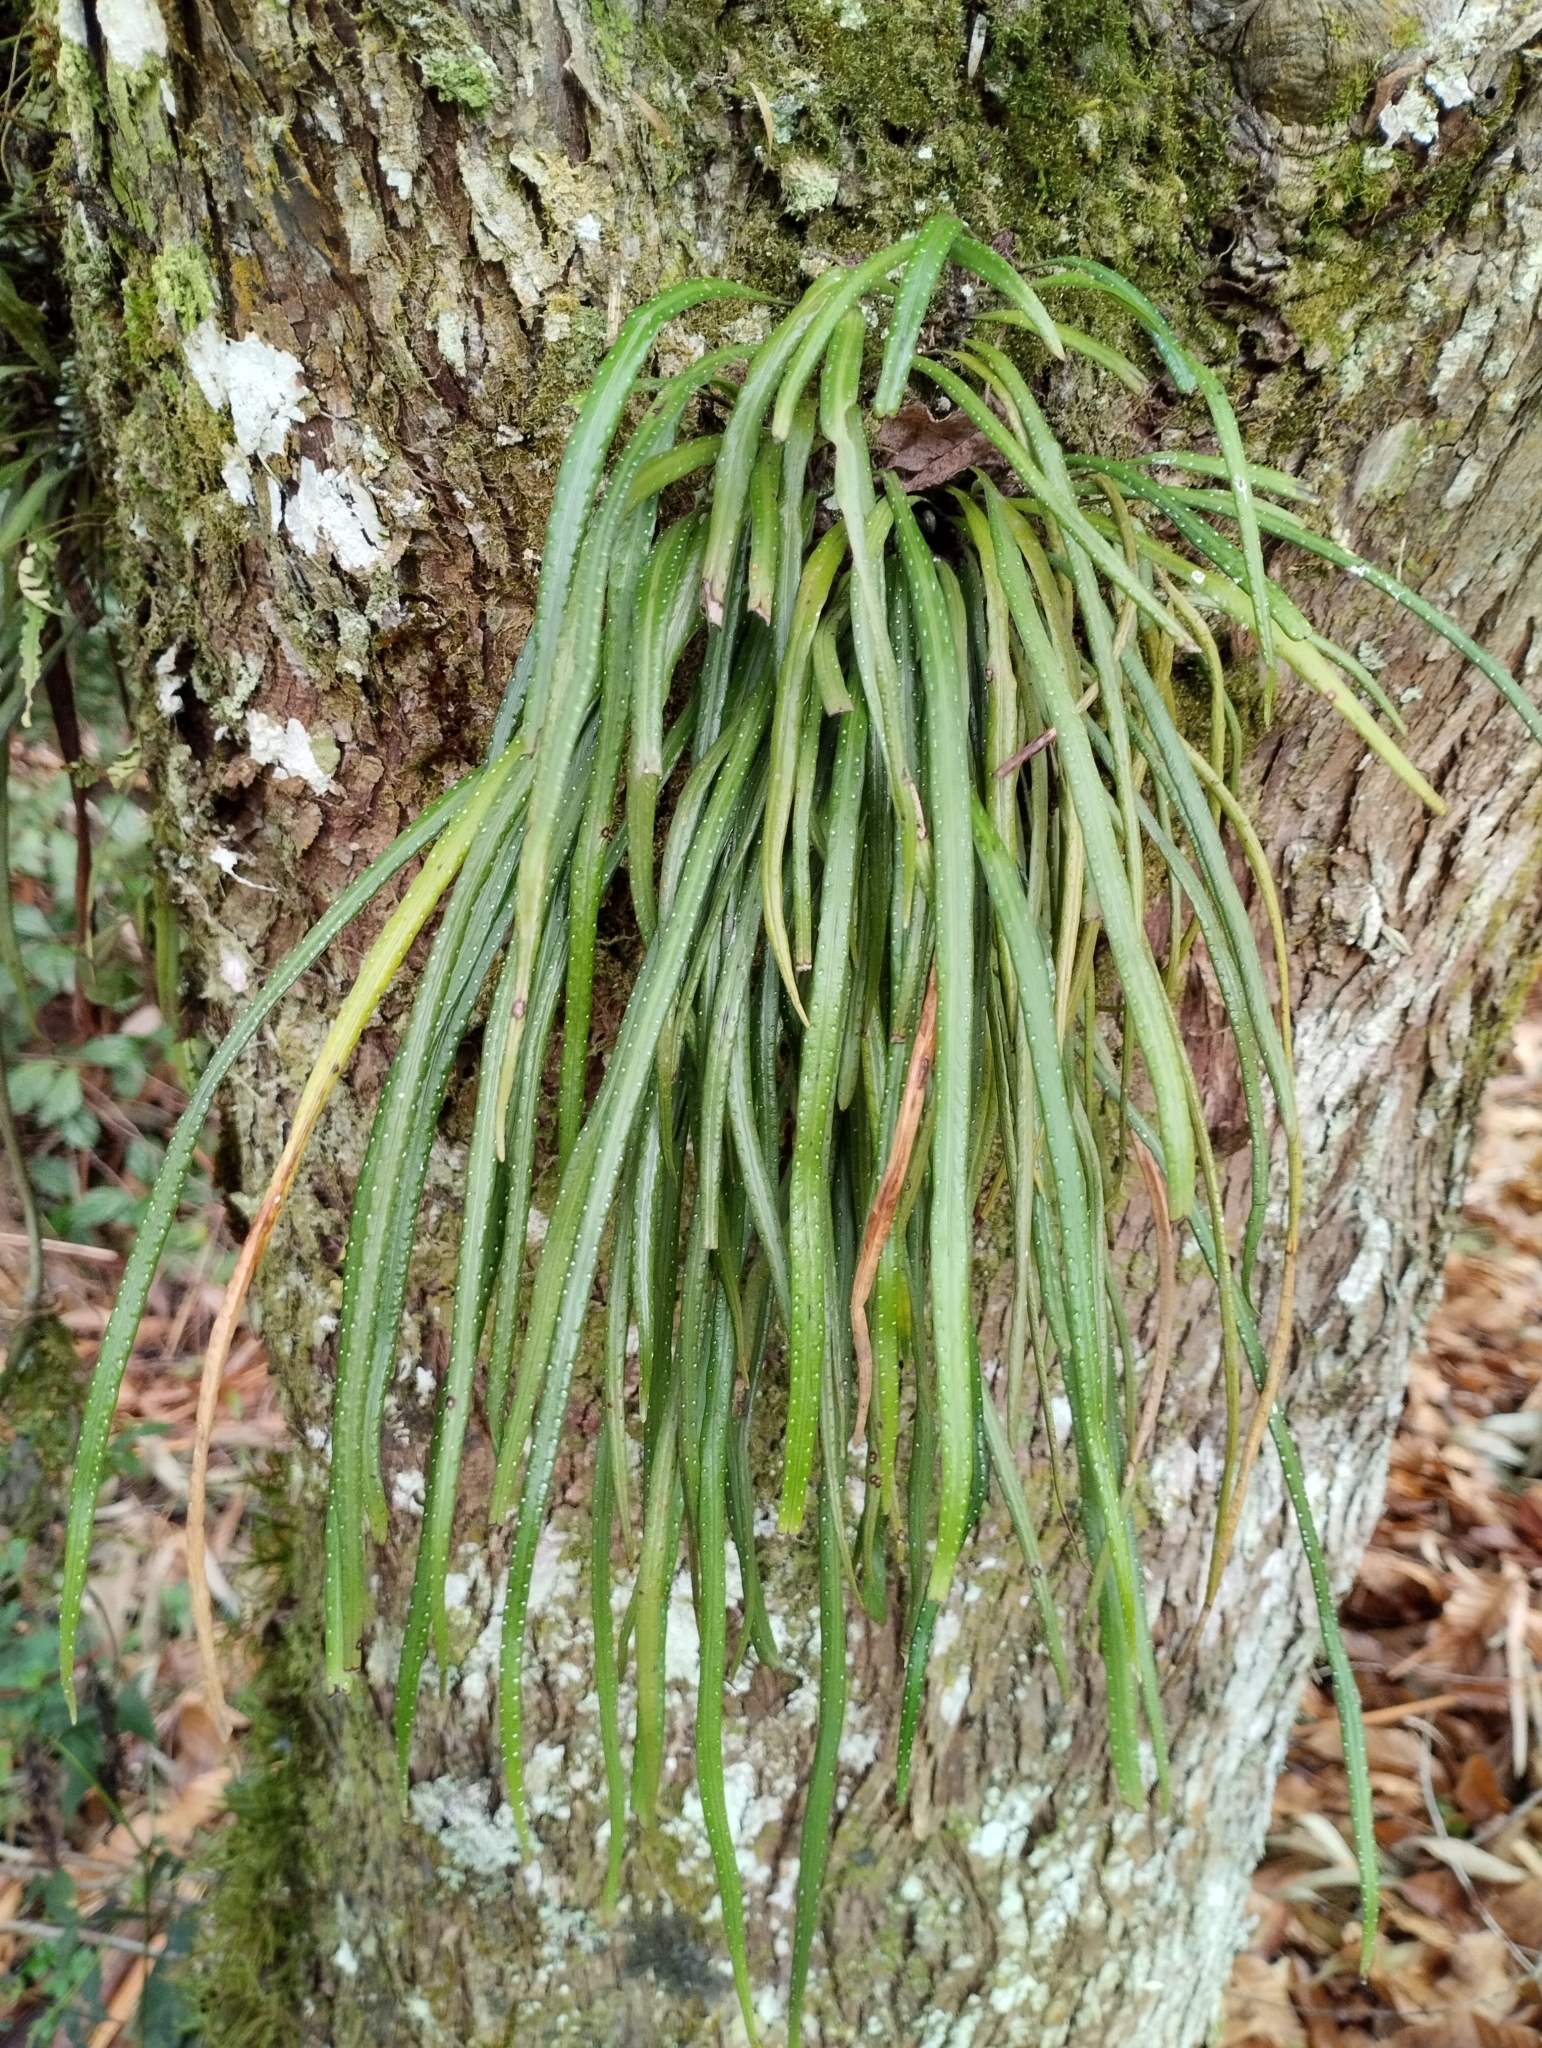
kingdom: Plantae
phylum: Tracheophyta
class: Polypodiopsida
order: Polypodiales
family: Polypodiaceae
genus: Campyloneurum
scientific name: Campyloneurum austrobrasilianum
